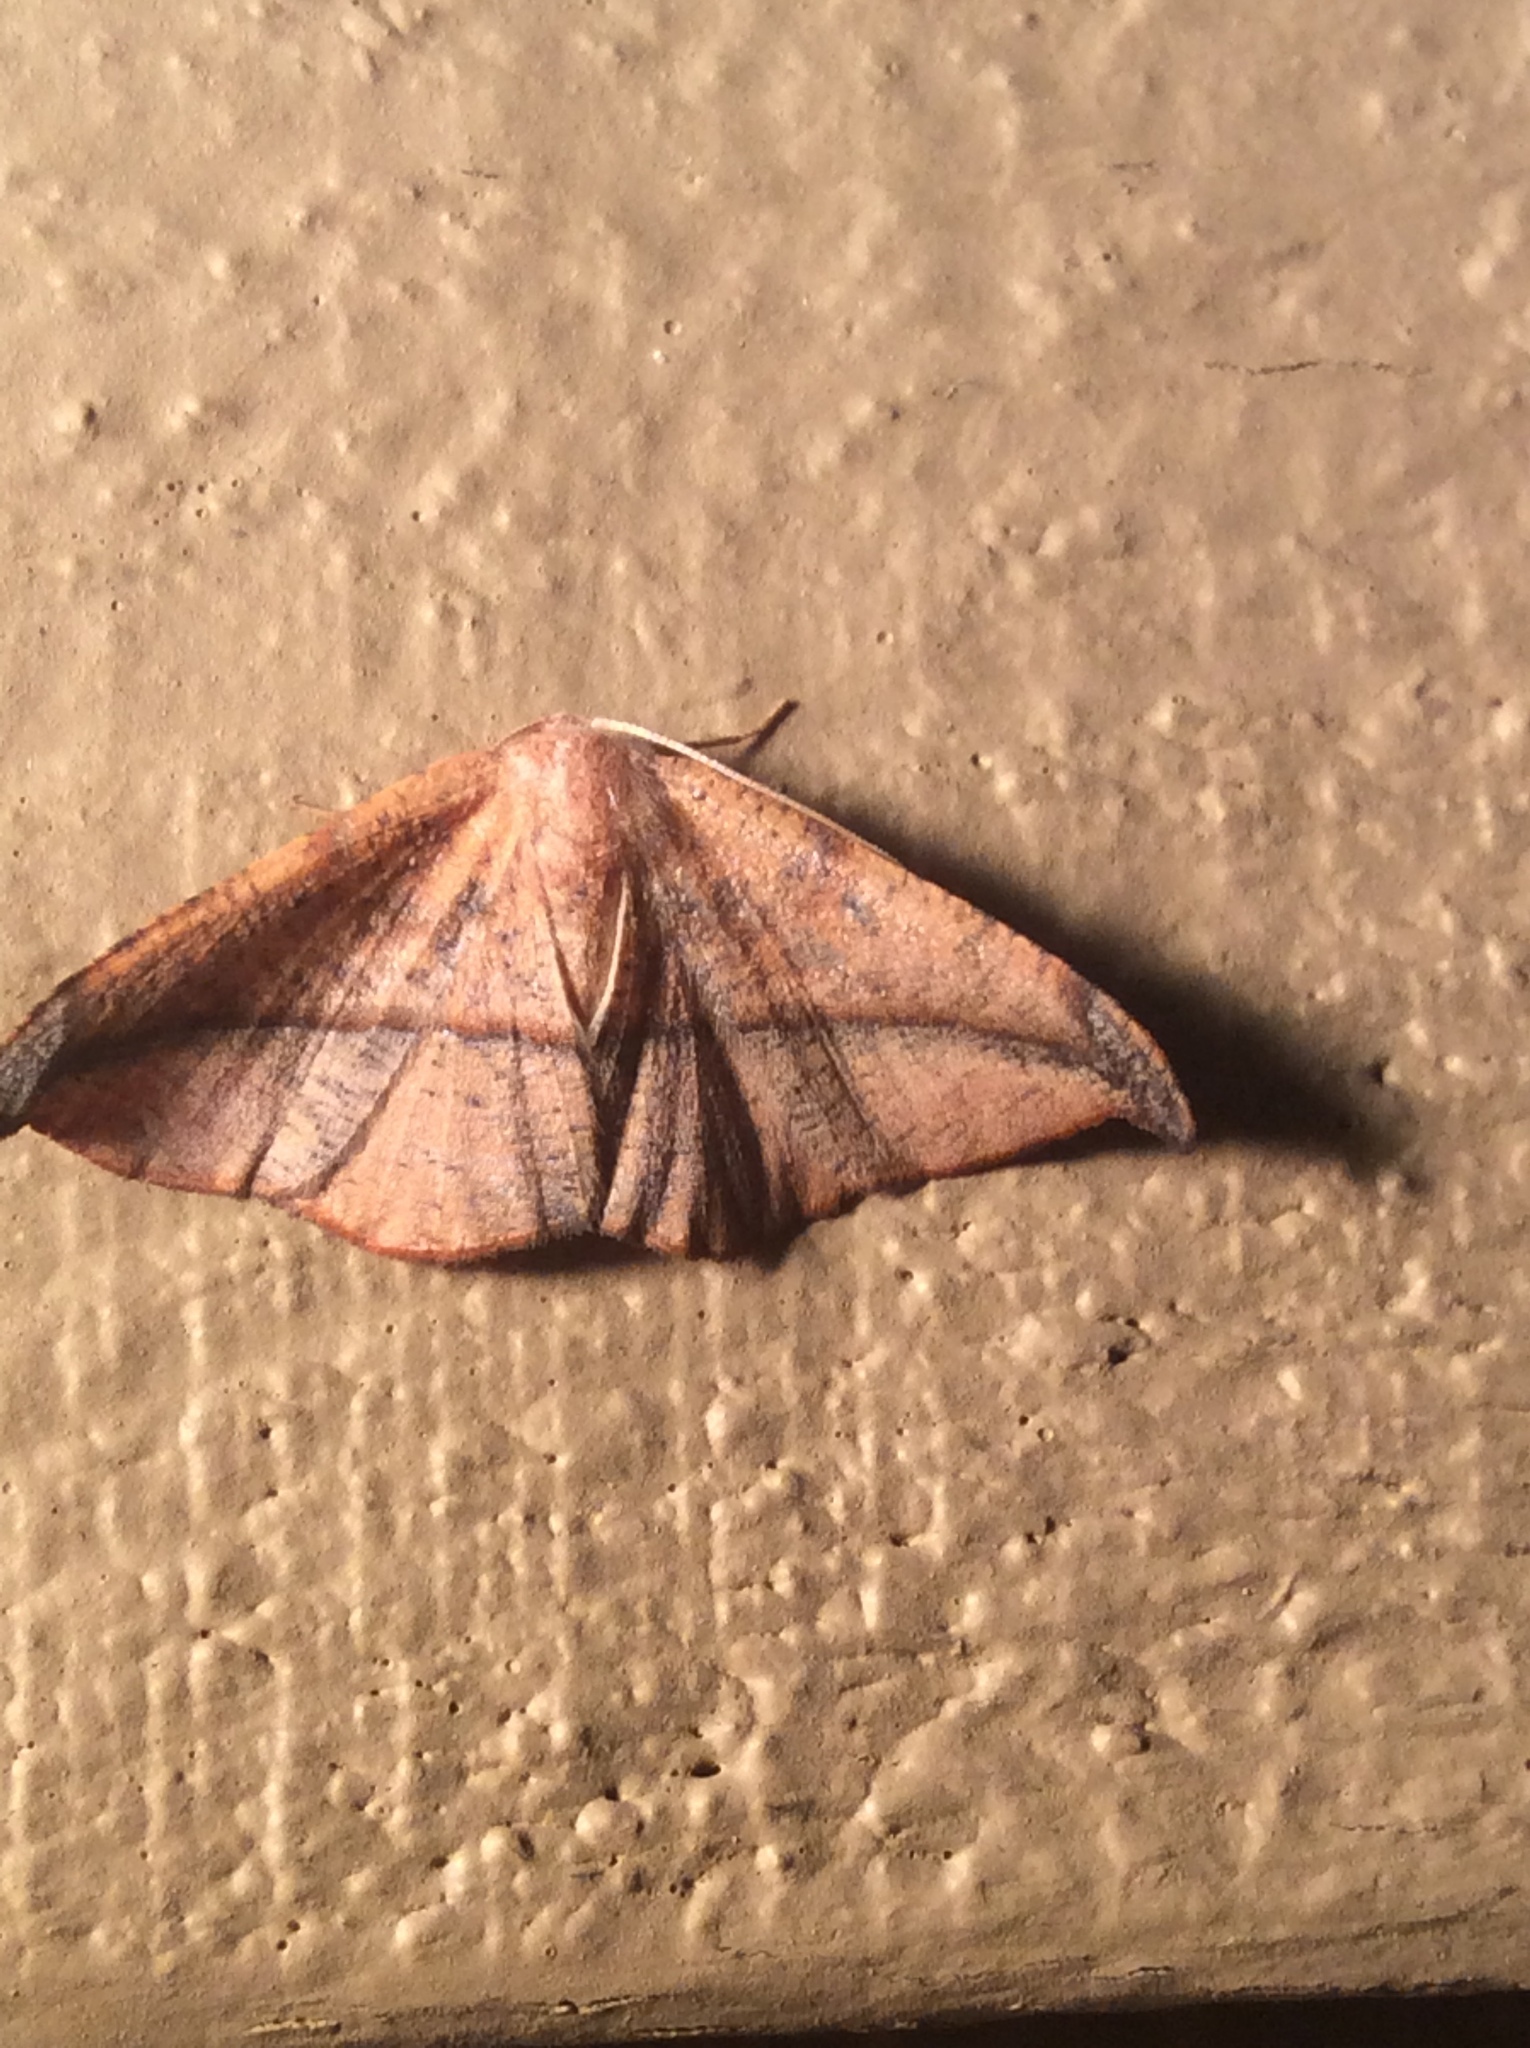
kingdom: Animalia
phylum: Arthropoda
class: Insecta
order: Lepidoptera
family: Geometridae
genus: Patalene
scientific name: Patalene olyzonaria
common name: Juniper geometer moth
